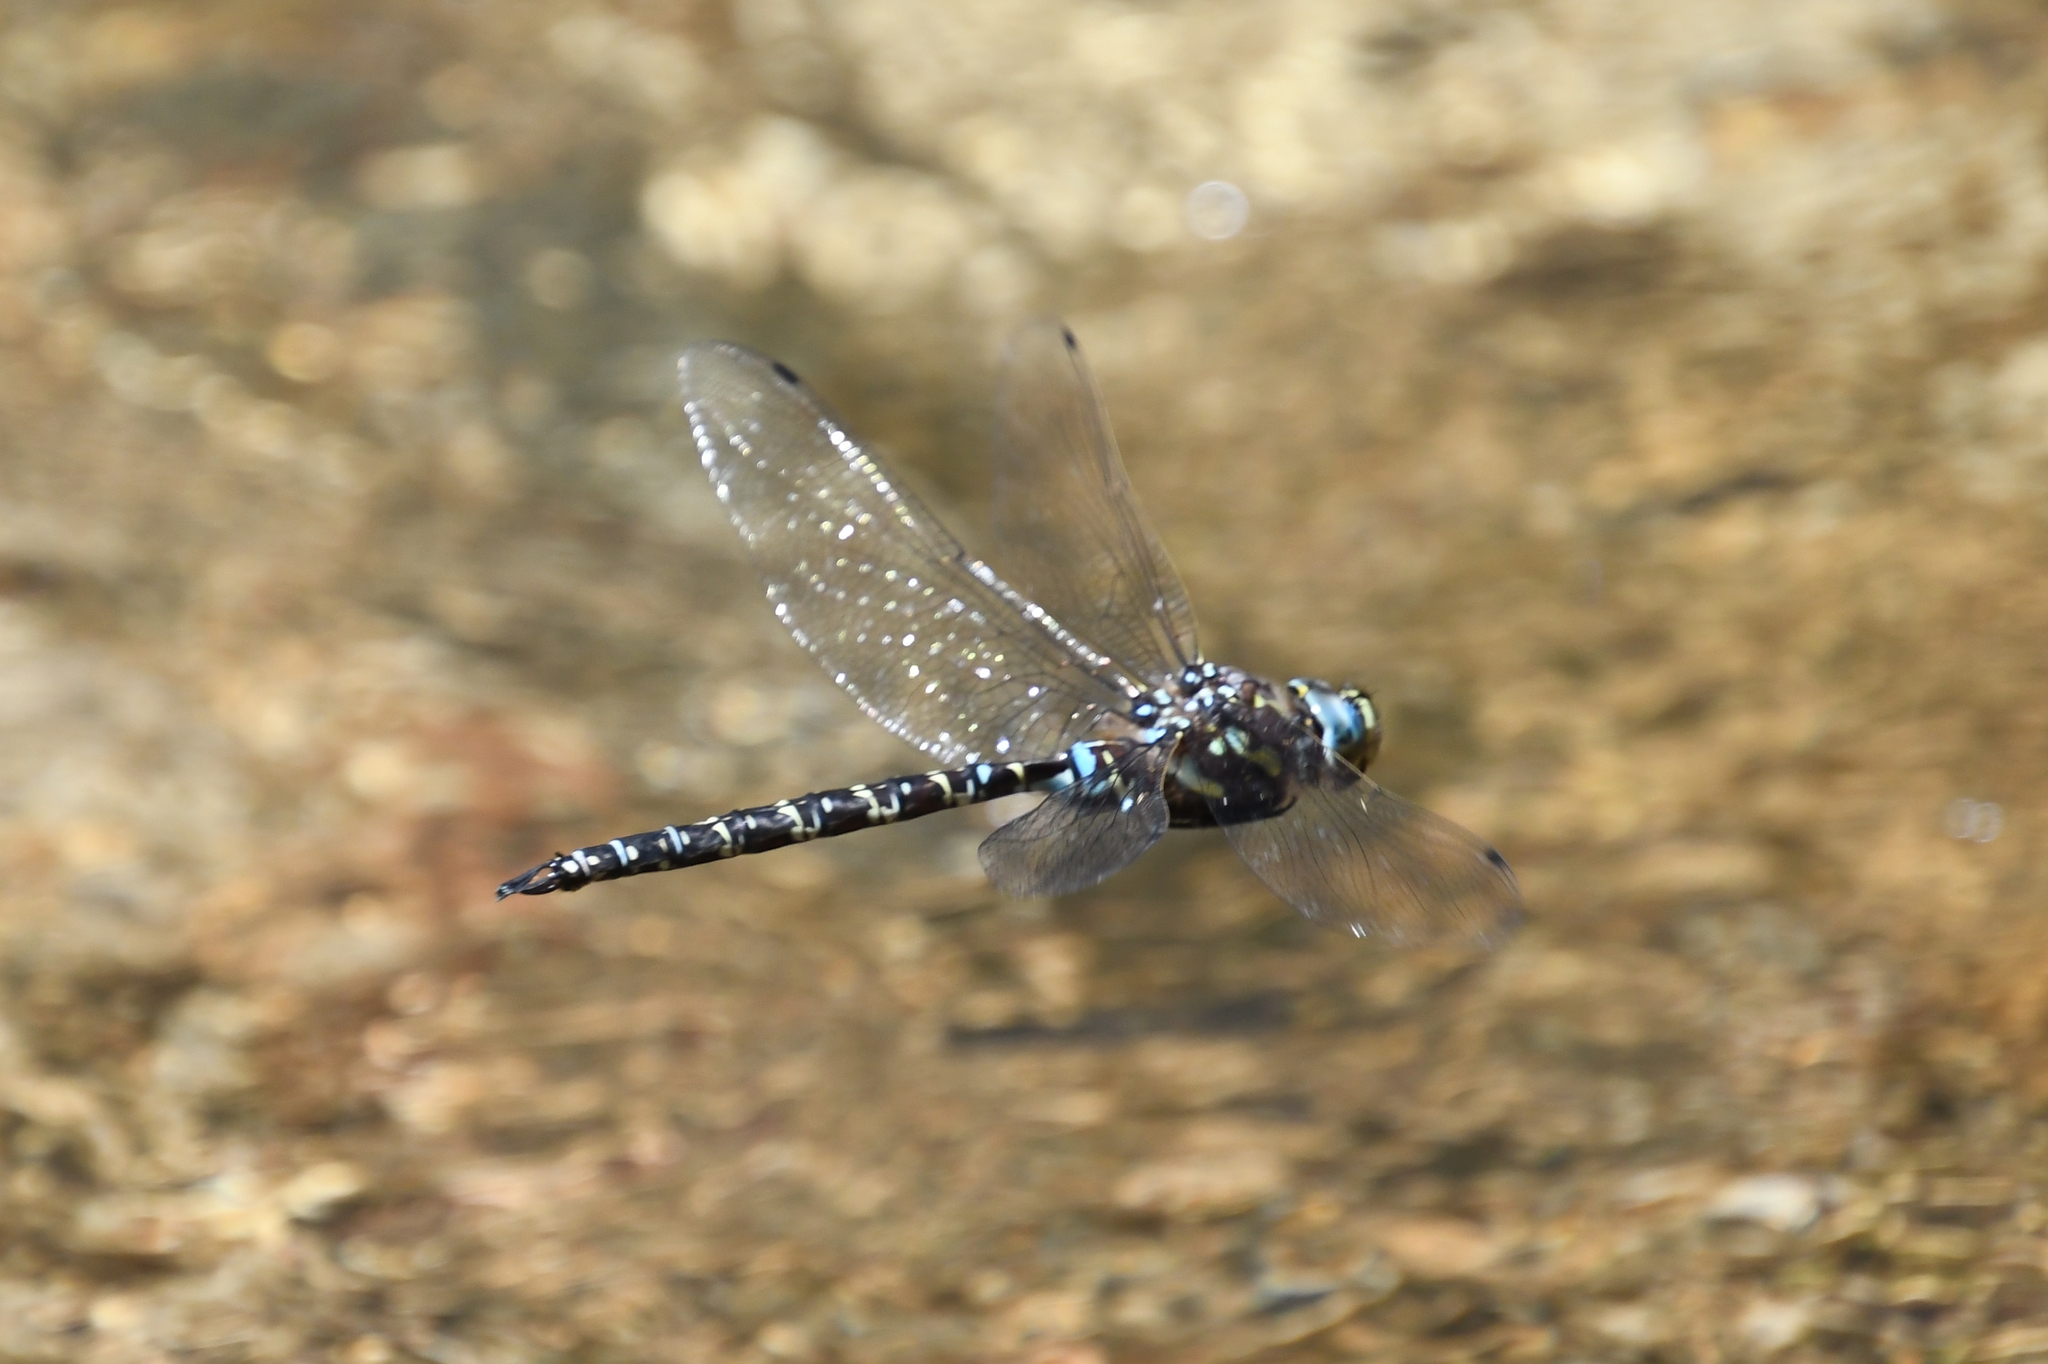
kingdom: Animalia
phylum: Arthropoda
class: Insecta
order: Odonata
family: Aeshnidae
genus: Oplonaeschna
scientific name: Oplonaeschna armata
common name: Riffle darner
